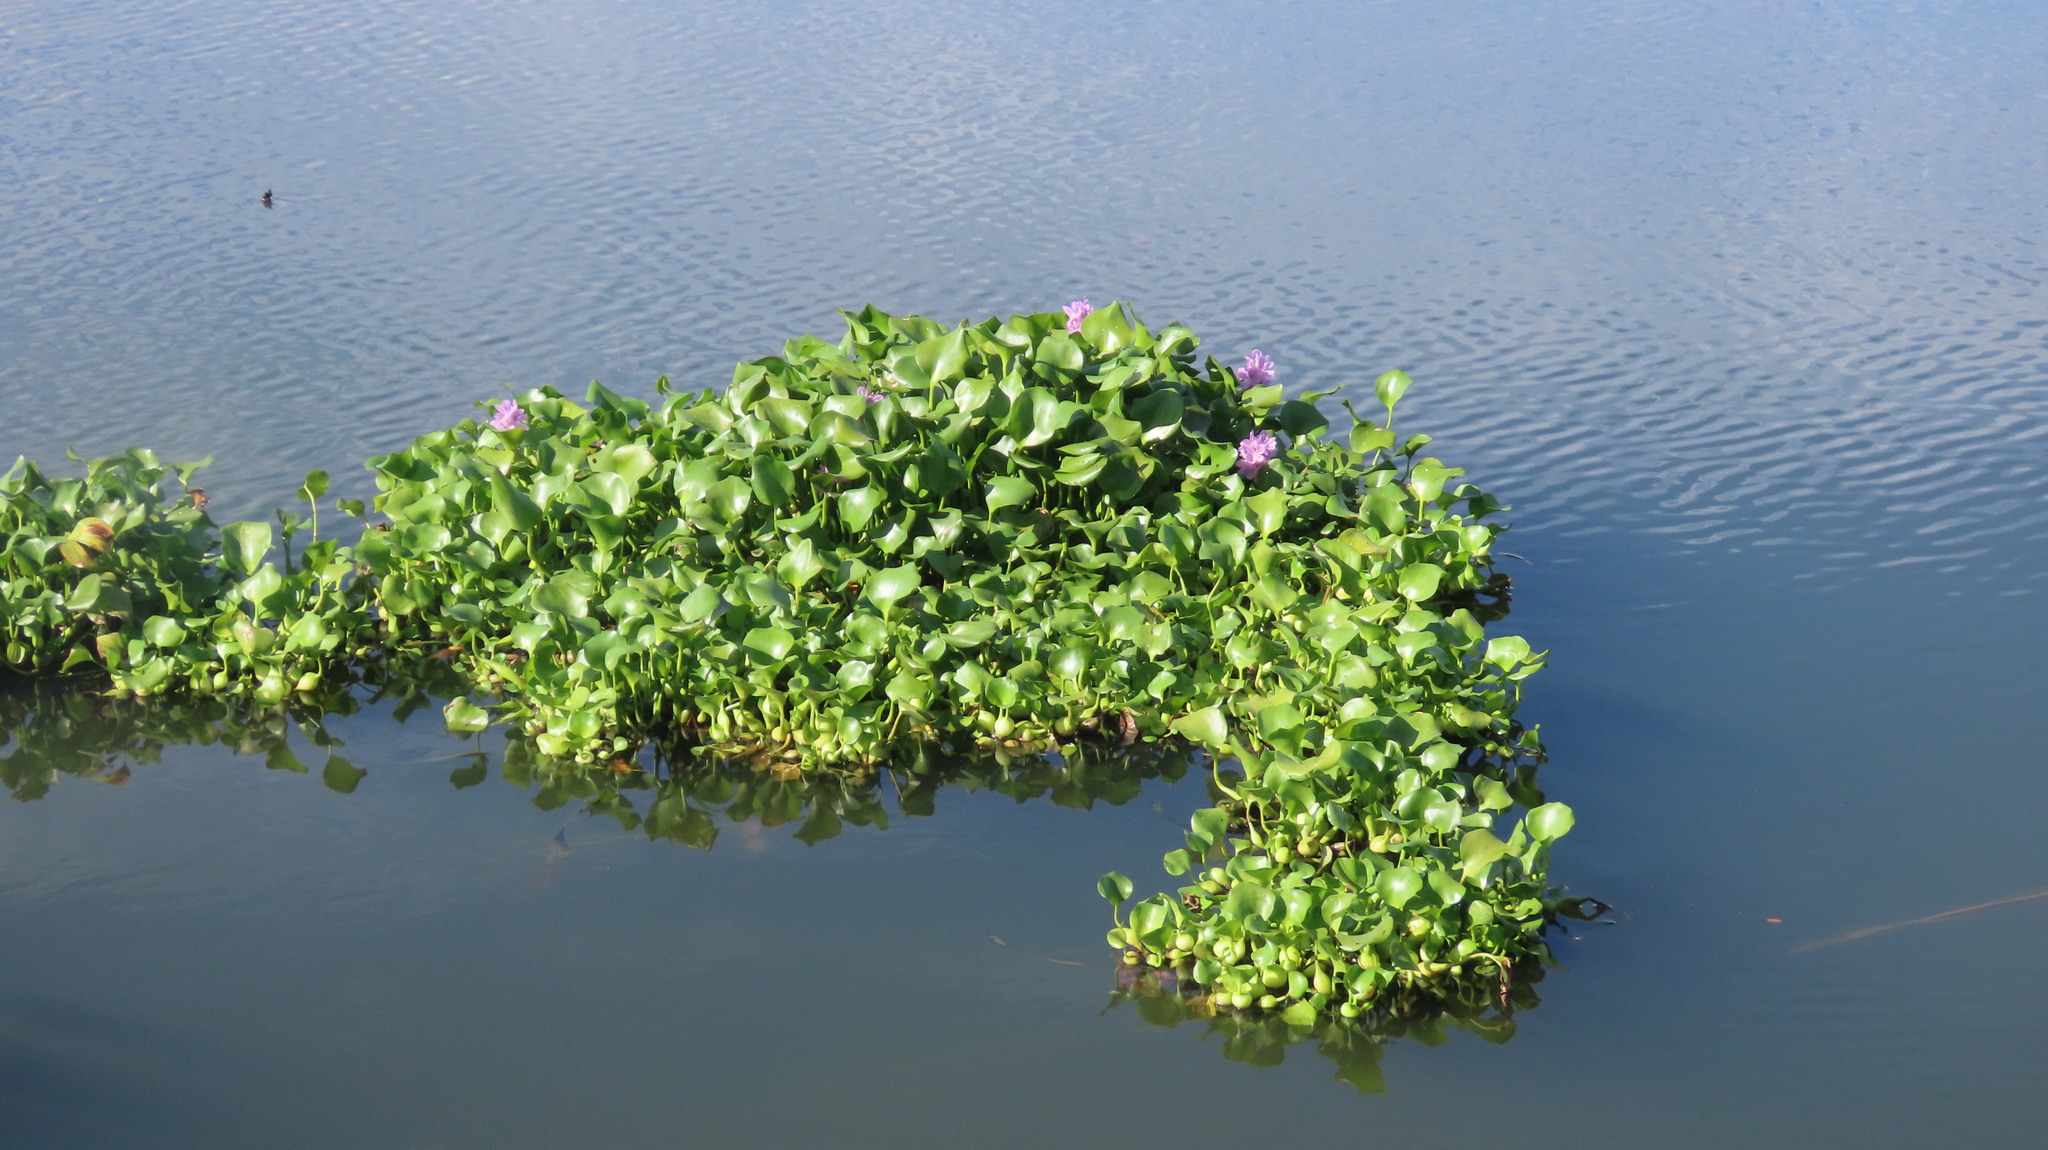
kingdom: Plantae
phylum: Tracheophyta
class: Liliopsida
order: Commelinales
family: Pontederiaceae
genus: Pontederia
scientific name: Pontederia crassipes
